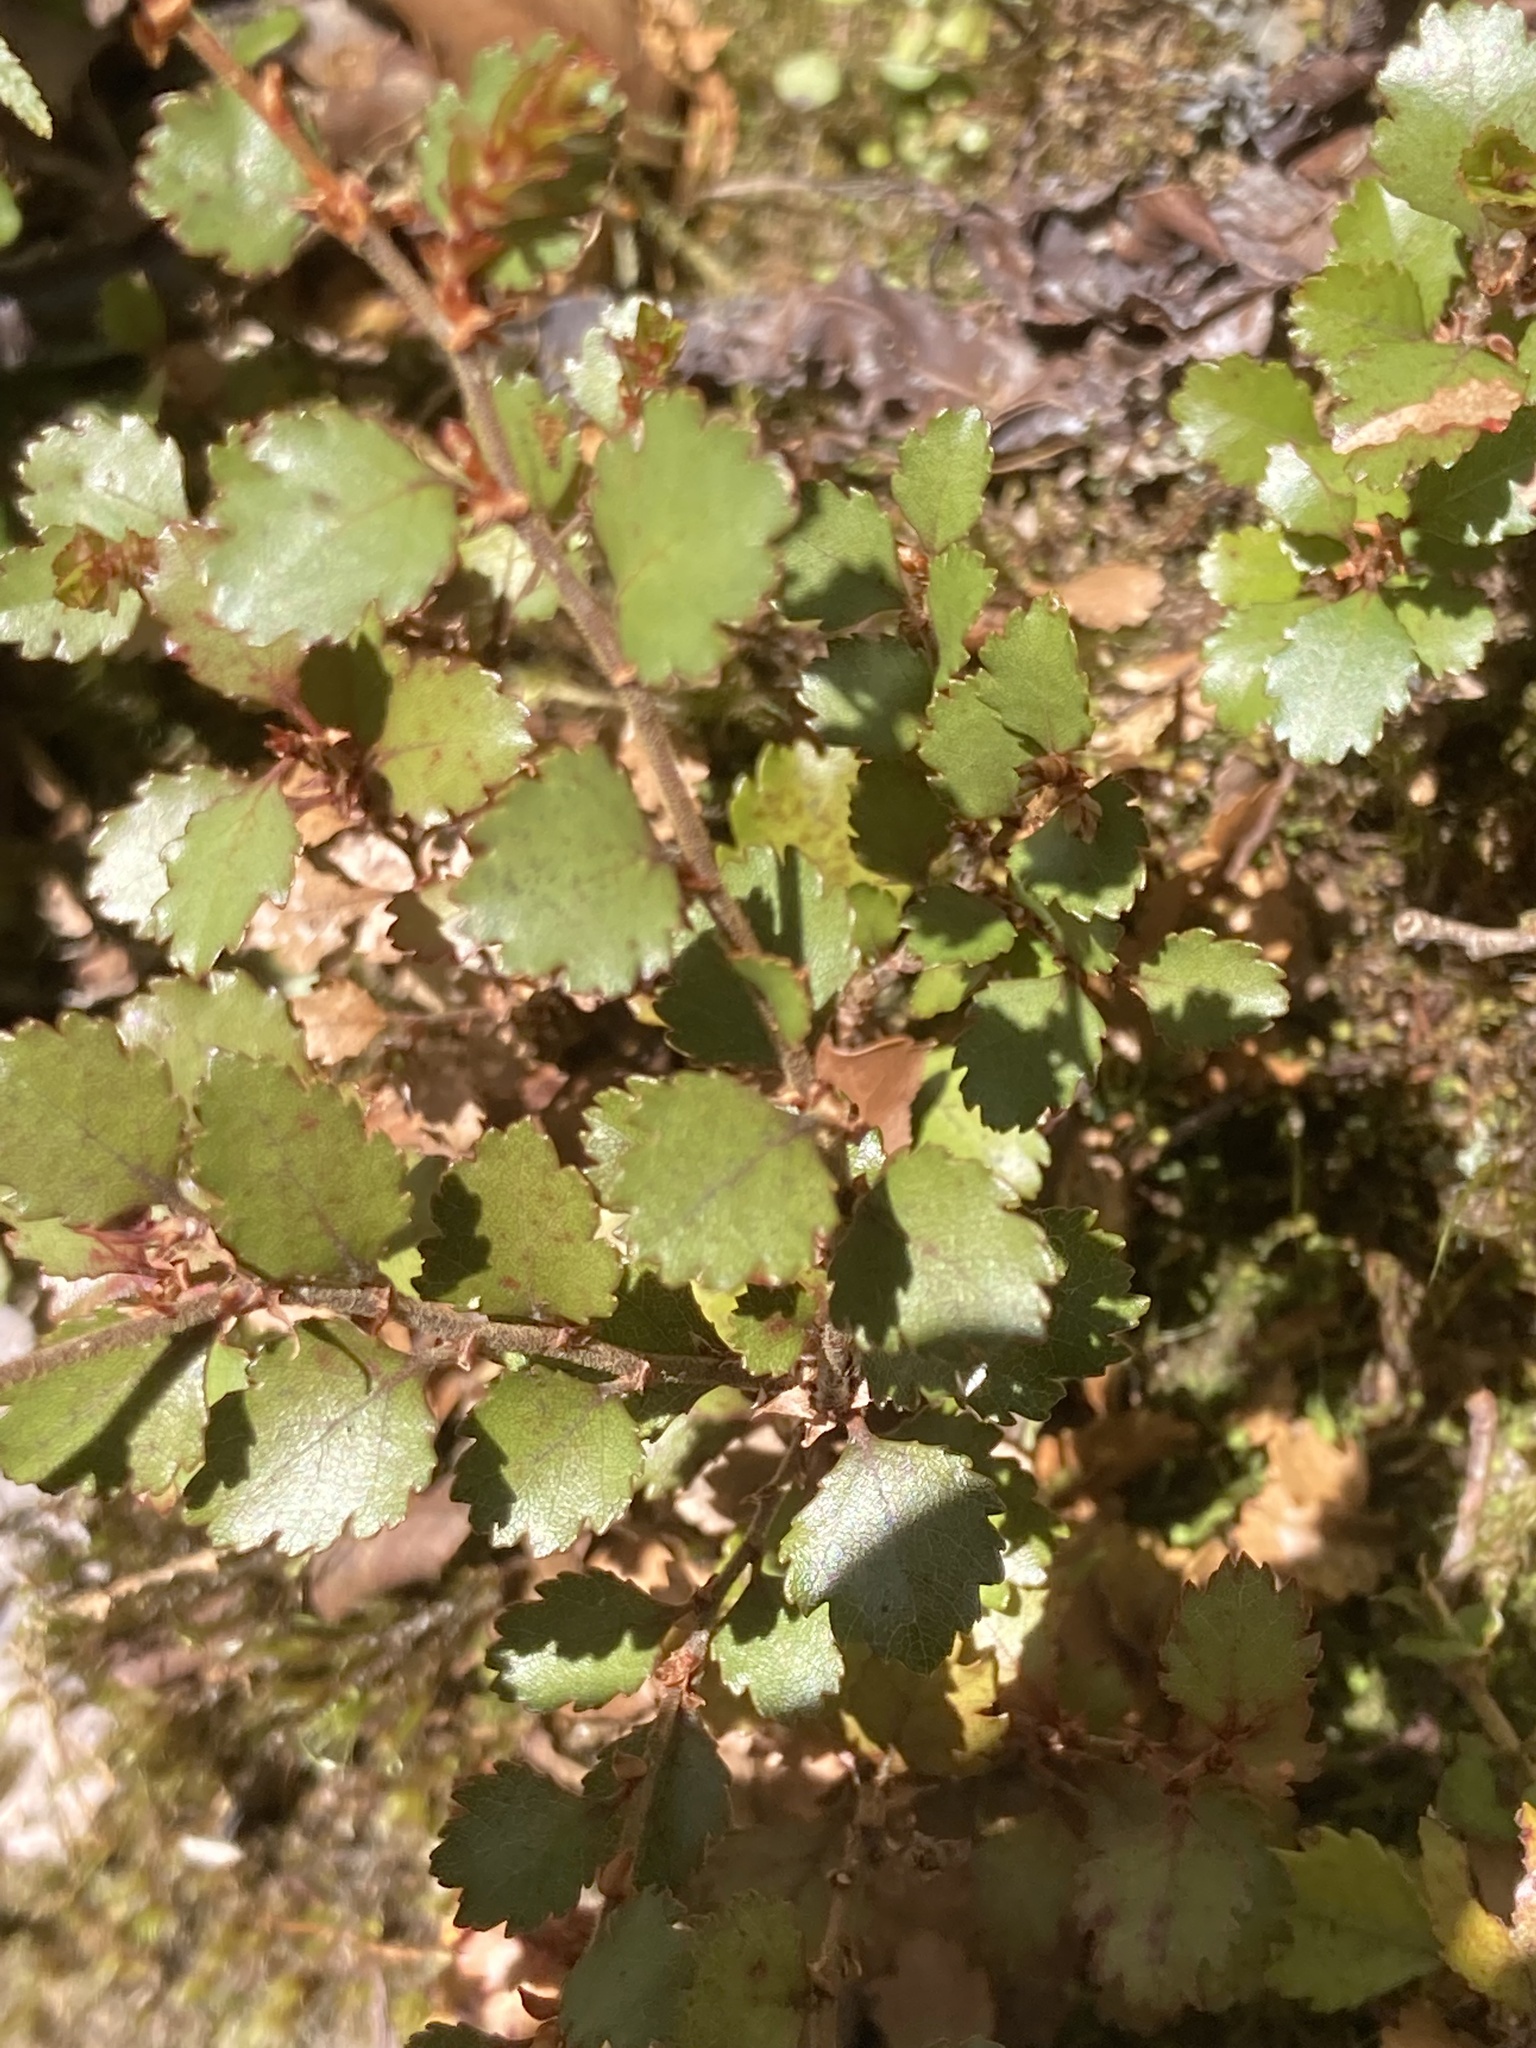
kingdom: Plantae
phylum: Tracheophyta
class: Magnoliopsida
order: Fagales
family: Nothofagaceae
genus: Nothofagus
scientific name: Nothofagus menziesii
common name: Silver beech
